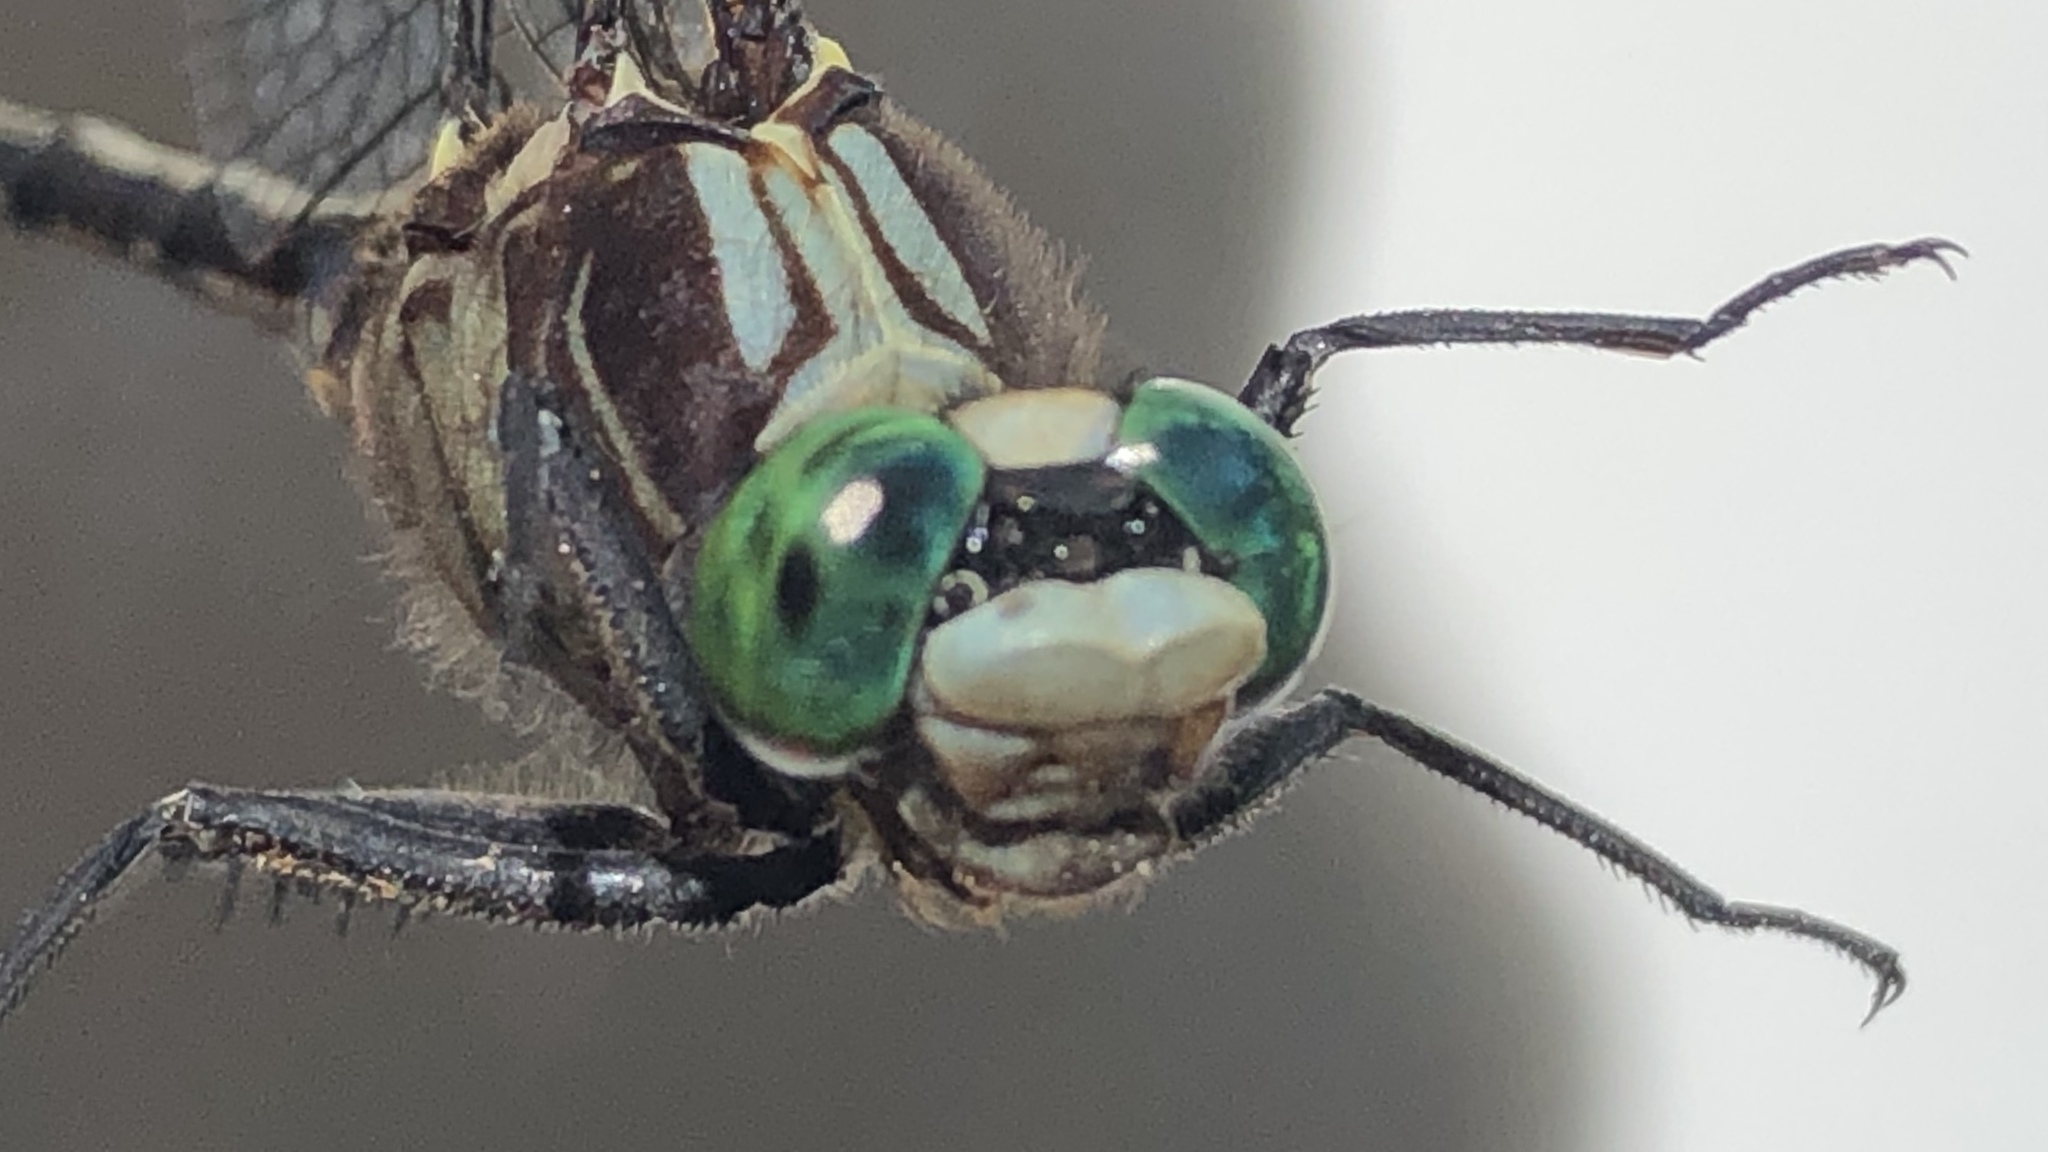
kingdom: Animalia
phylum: Arthropoda
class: Insecta
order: Odonata
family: Gomphidae
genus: Dromogomphus
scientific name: Dromogomphus spinosus
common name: Black-shouldered spinyleg
